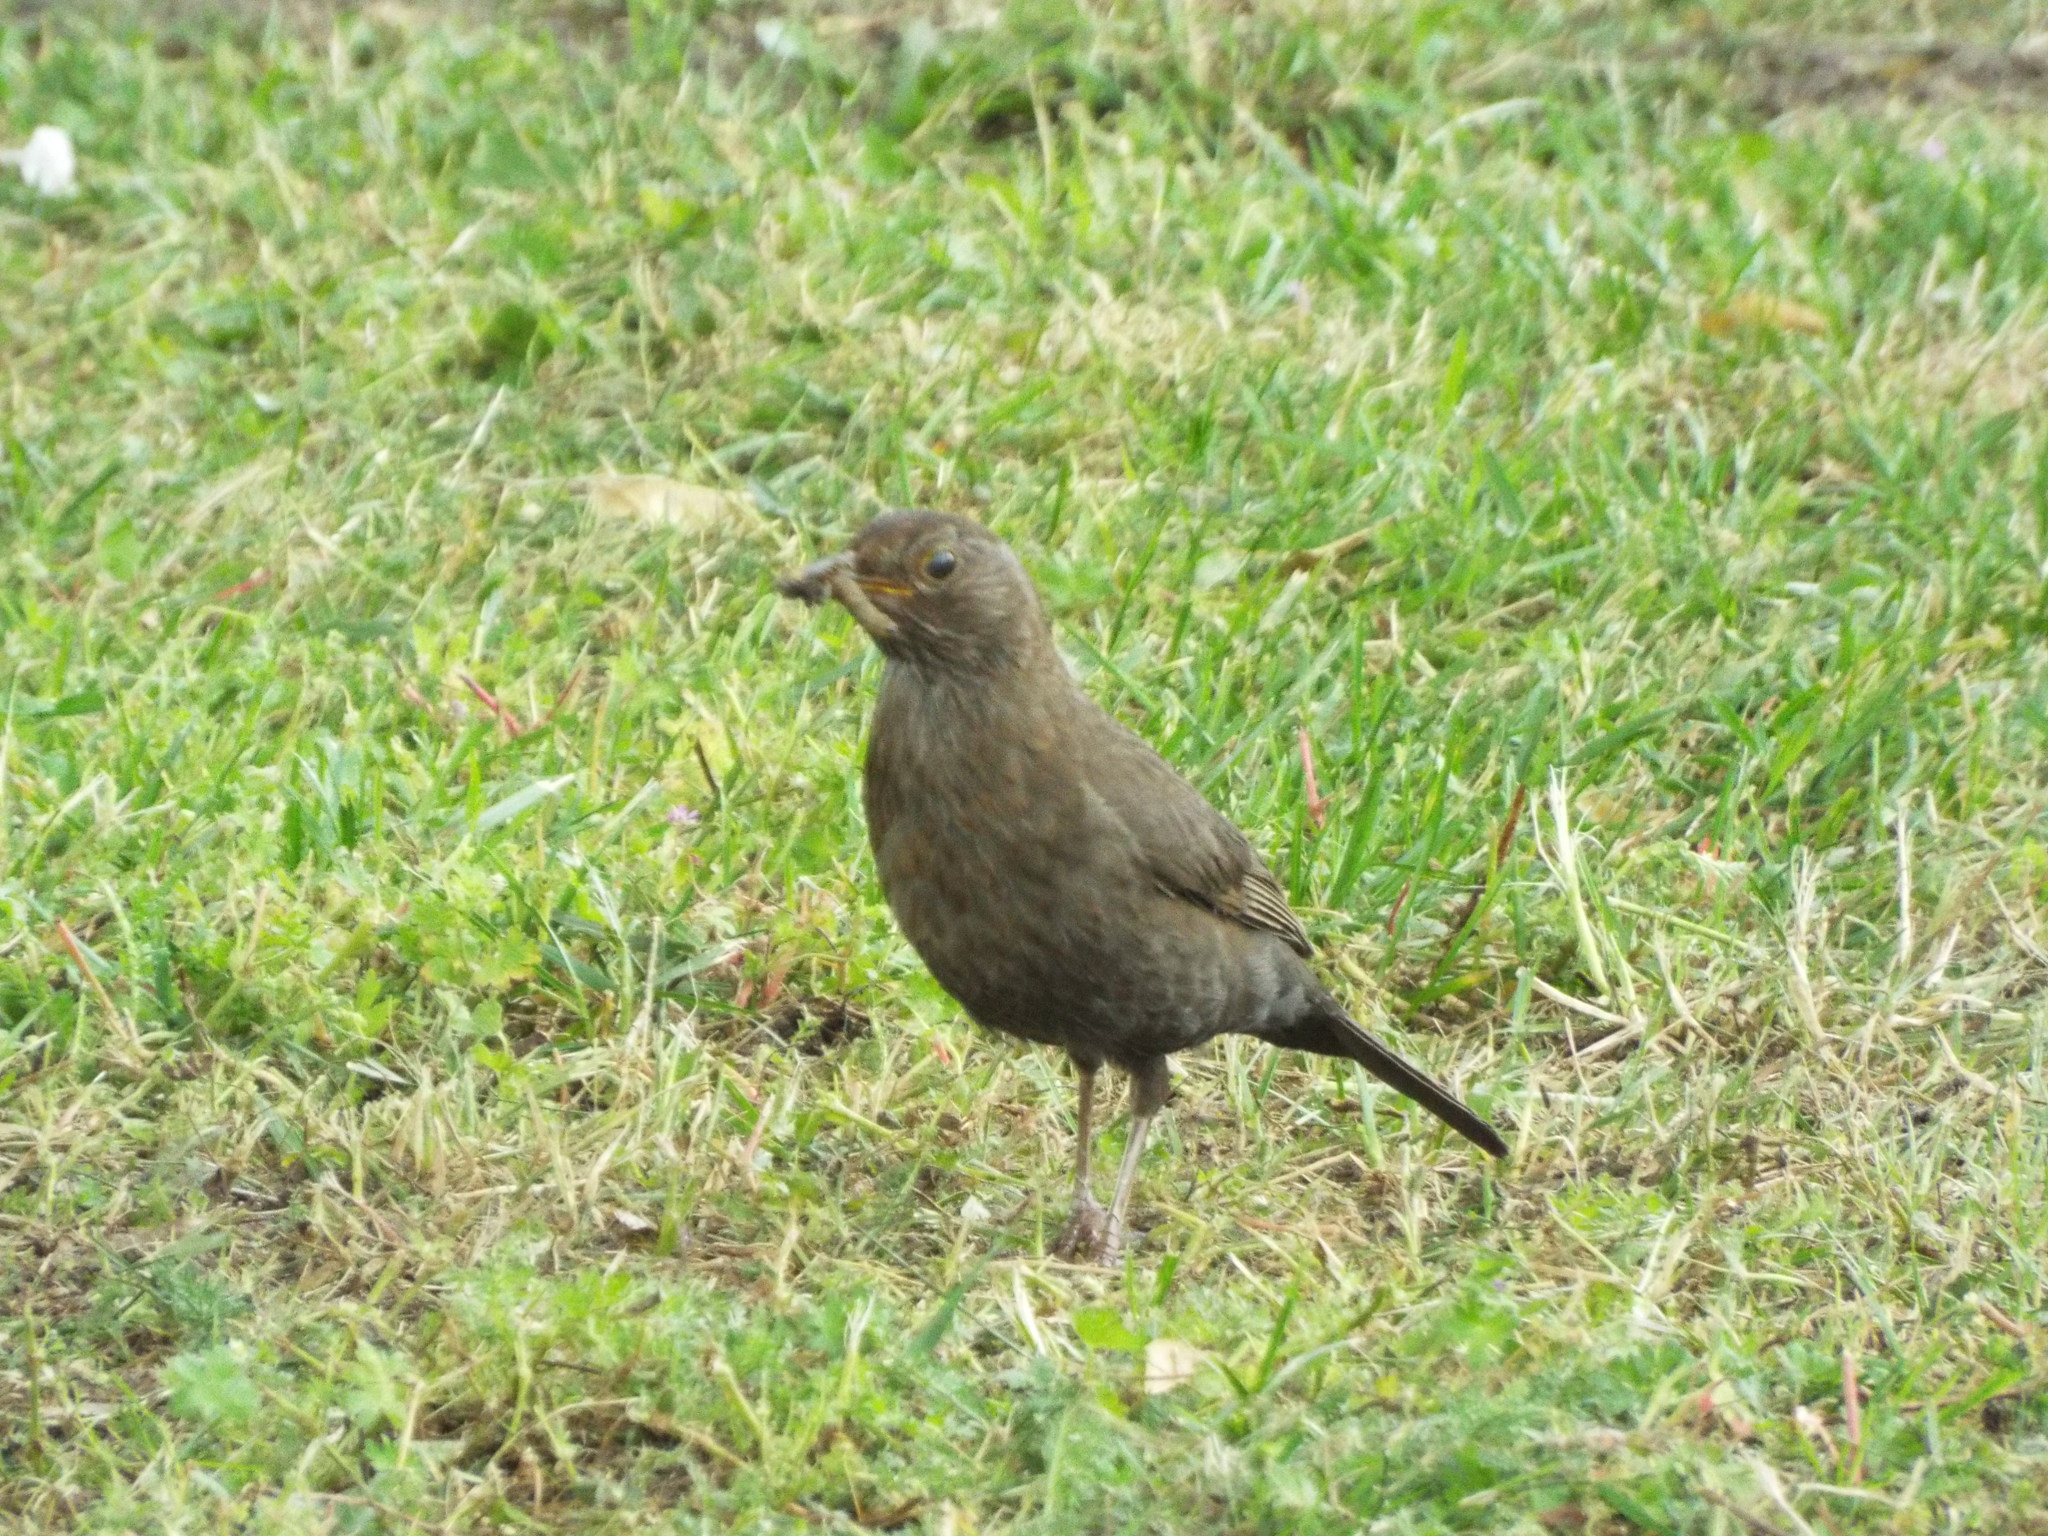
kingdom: Animalia
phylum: Chordata
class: Aves
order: Passeriformes
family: Turdidae
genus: Turdus
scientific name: Turdus merula
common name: Common blackbird
